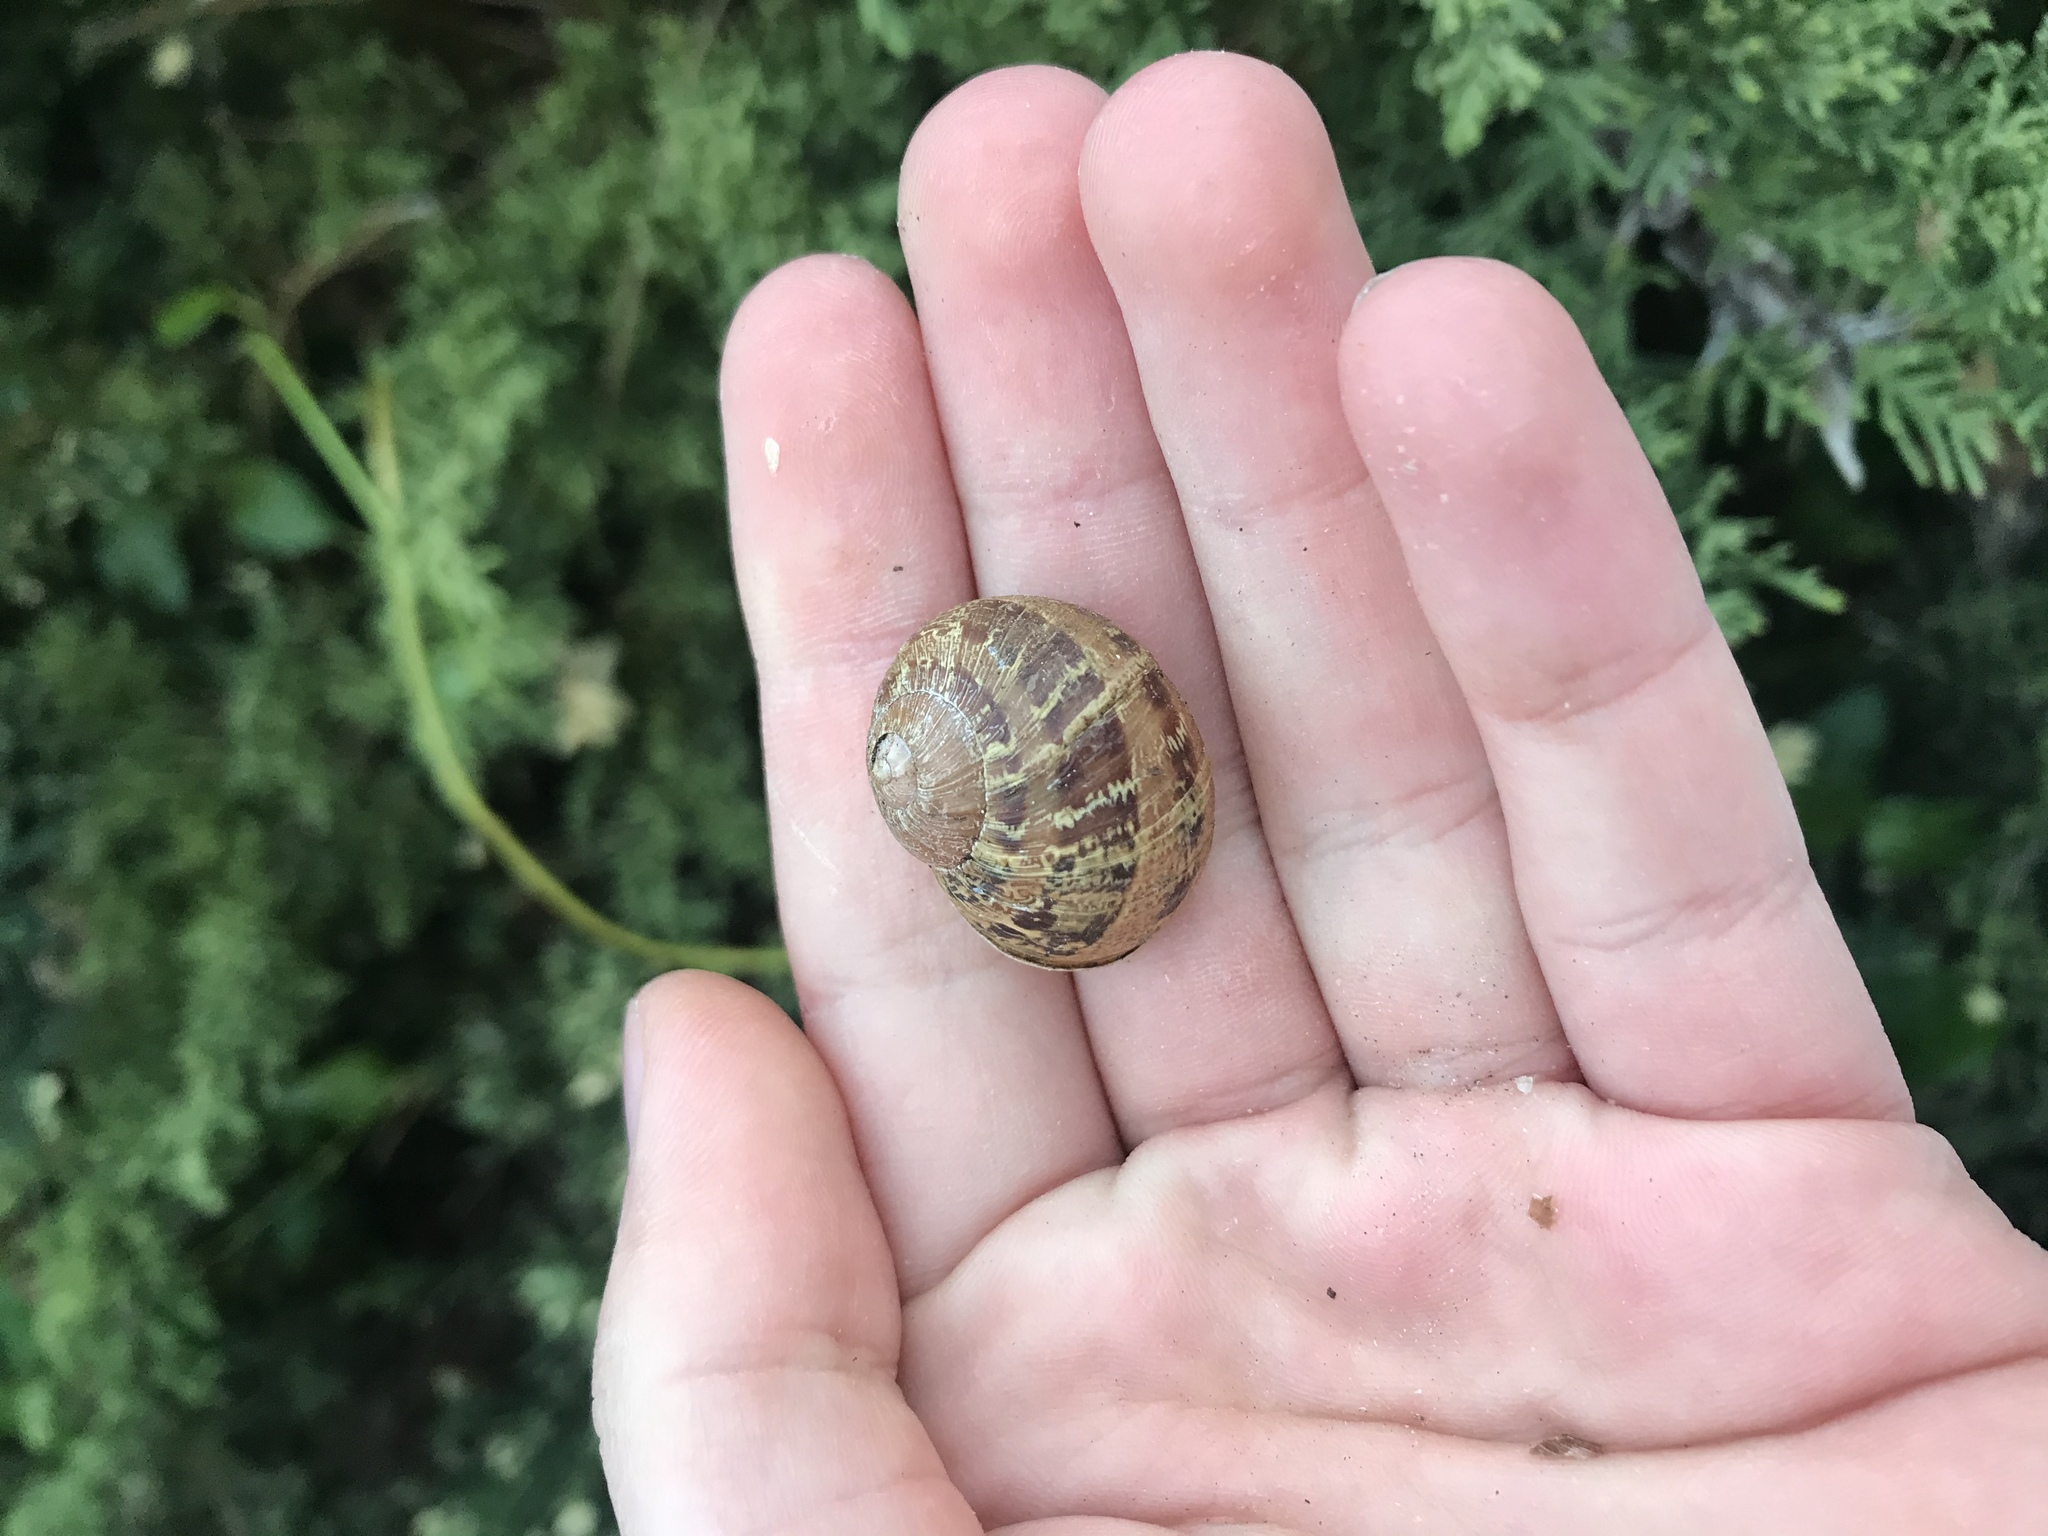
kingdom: Animalia
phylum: Mollusca
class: Gastropoda
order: Stylommatophora
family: Helicidae
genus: Cornu
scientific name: Cornu aspersum
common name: Brown garden snail
